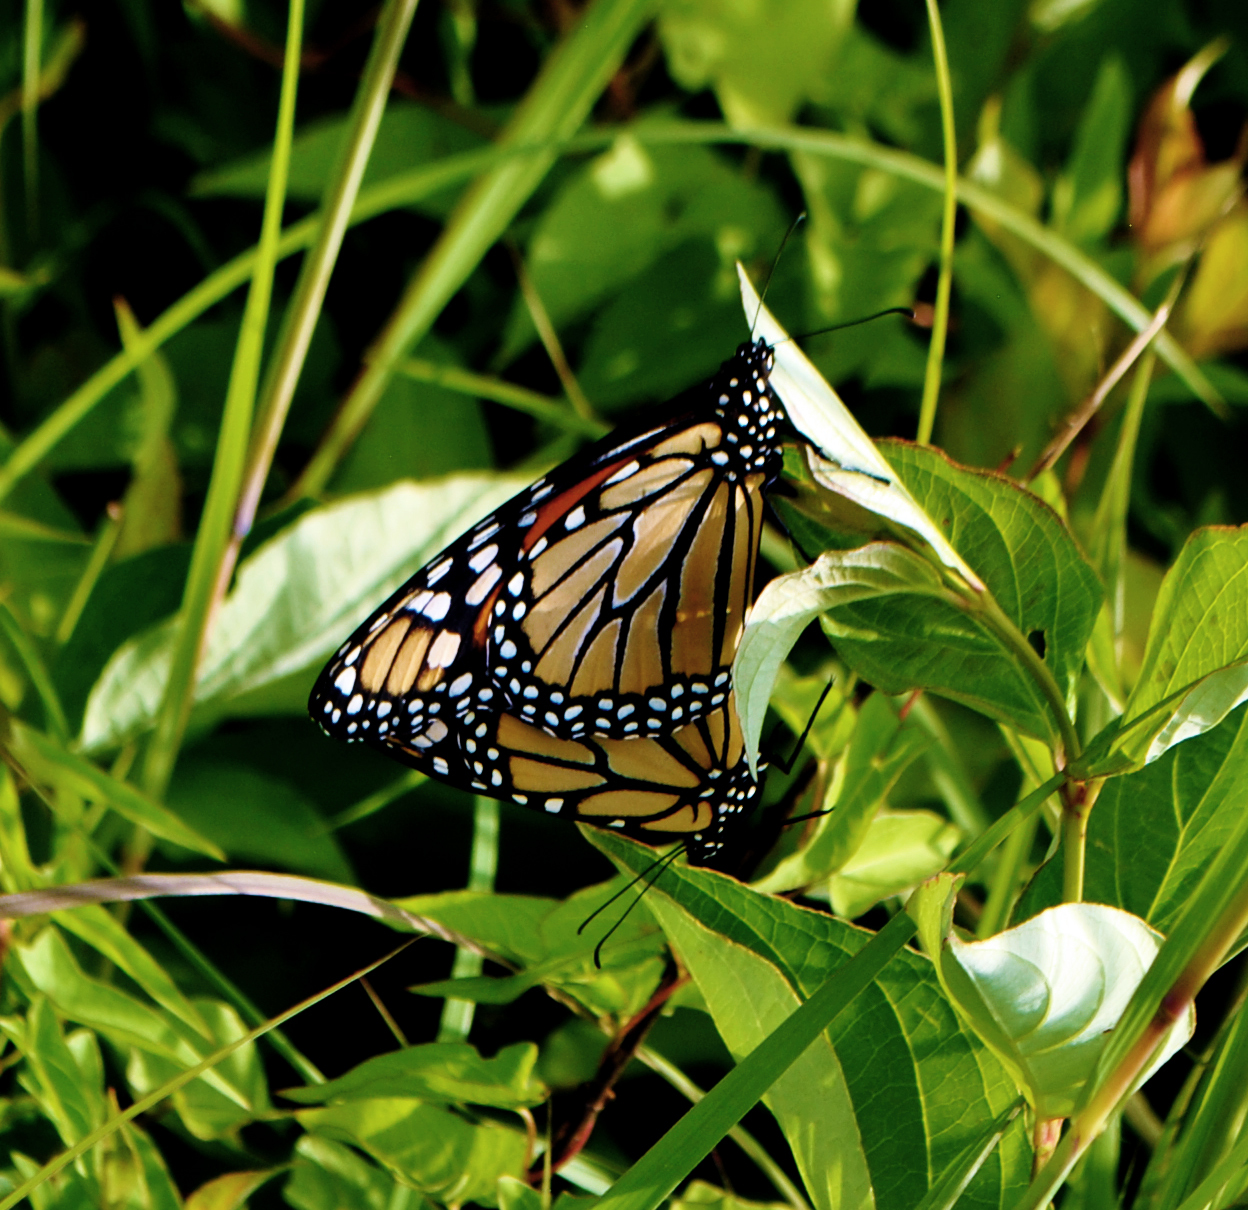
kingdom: Animalia
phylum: Arthropoda
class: Insecta
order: Lepidoptera
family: Nymphalidae
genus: Danaus
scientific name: Danaus plexippus
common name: Monarch
